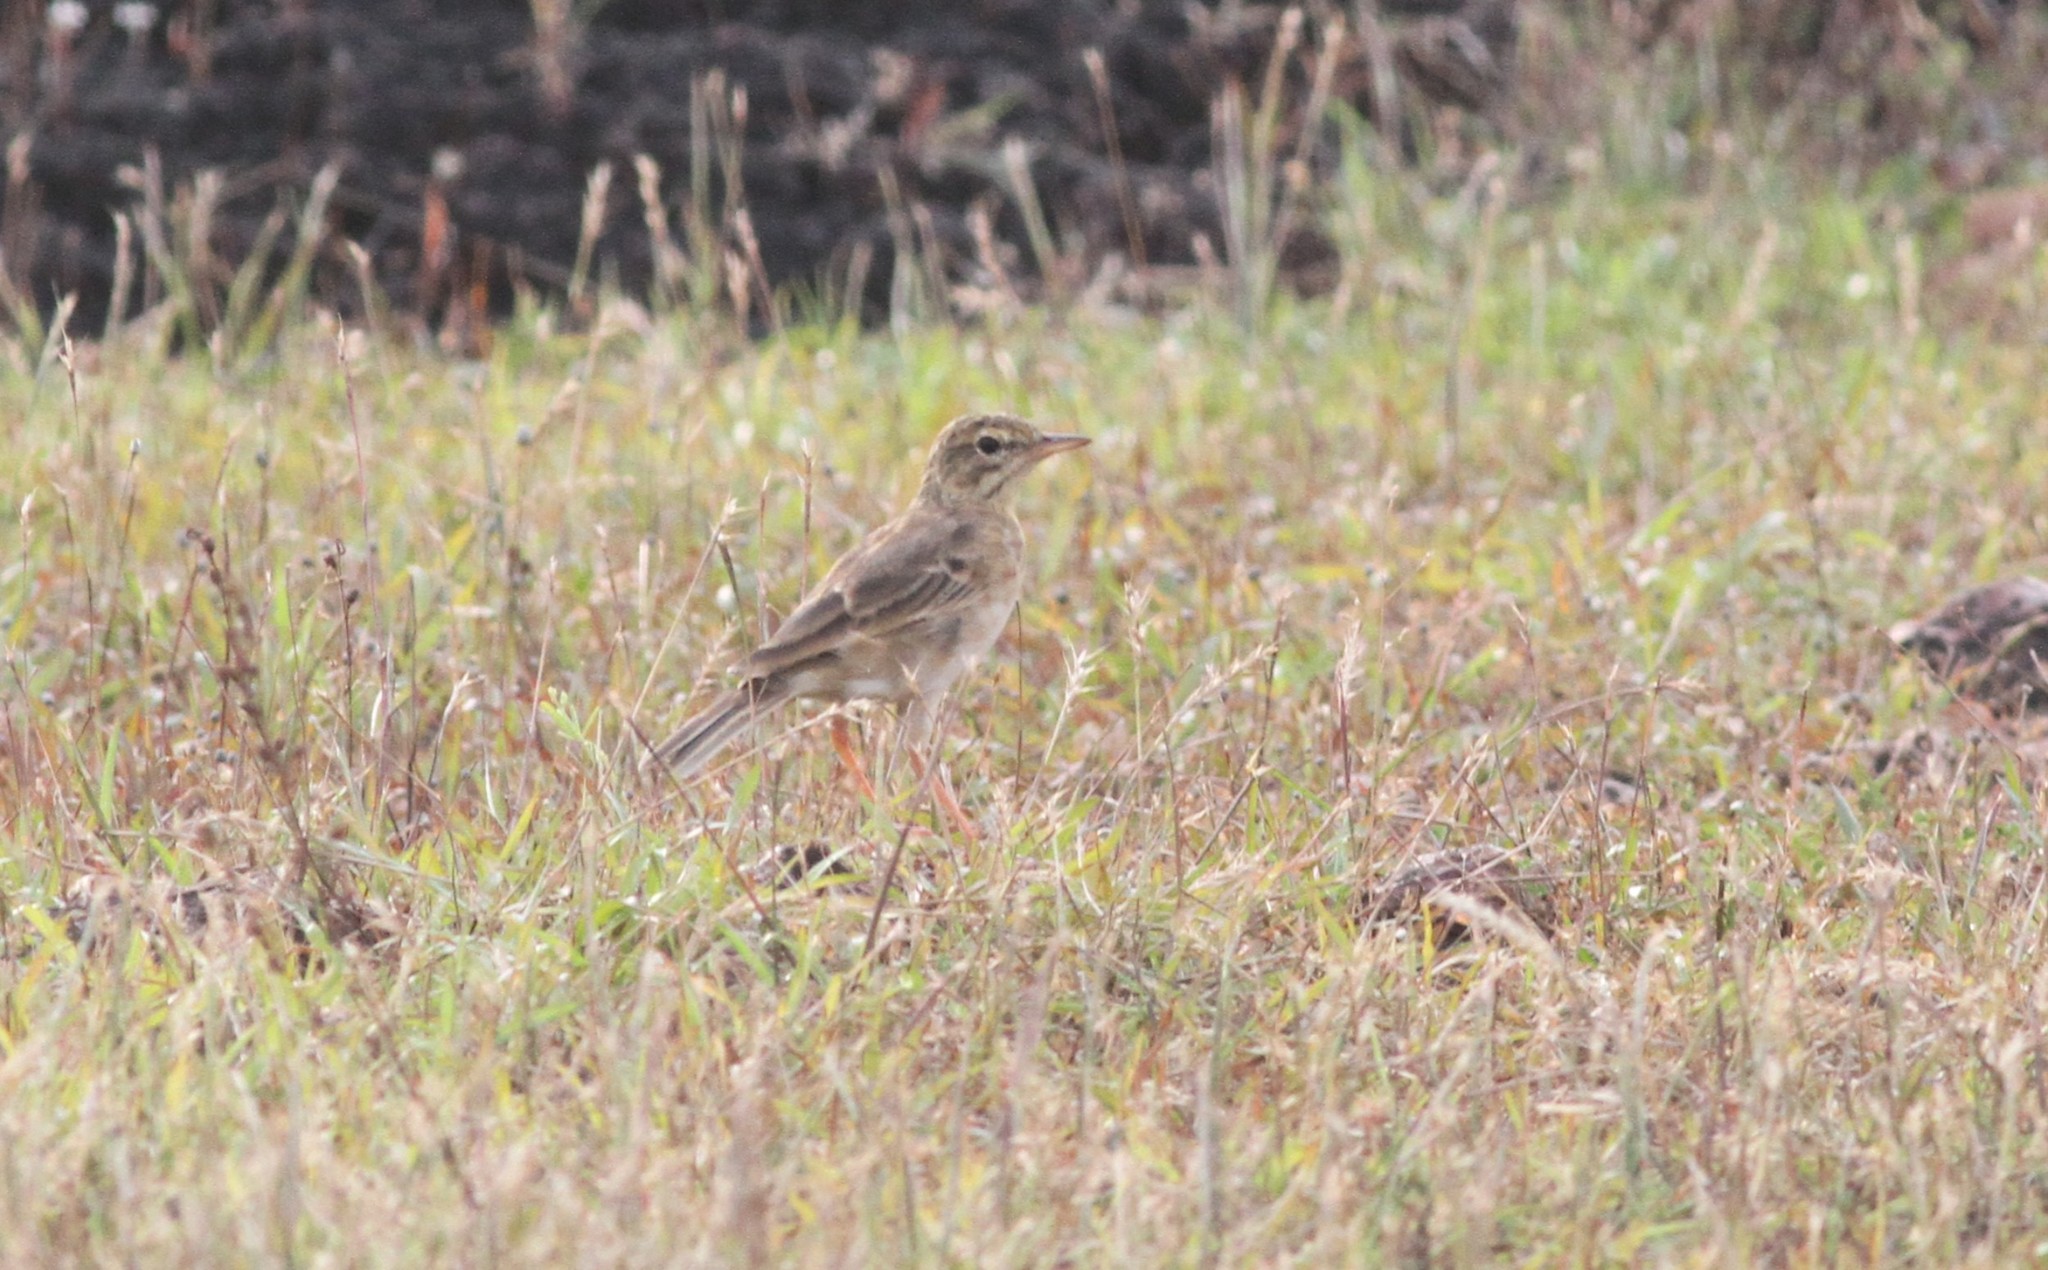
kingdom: Animalia
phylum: Chordata
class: Aves
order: Passeriformes
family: Motacillidae
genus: Anthus
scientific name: Anthus rufulus
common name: Paddyfield pipit
